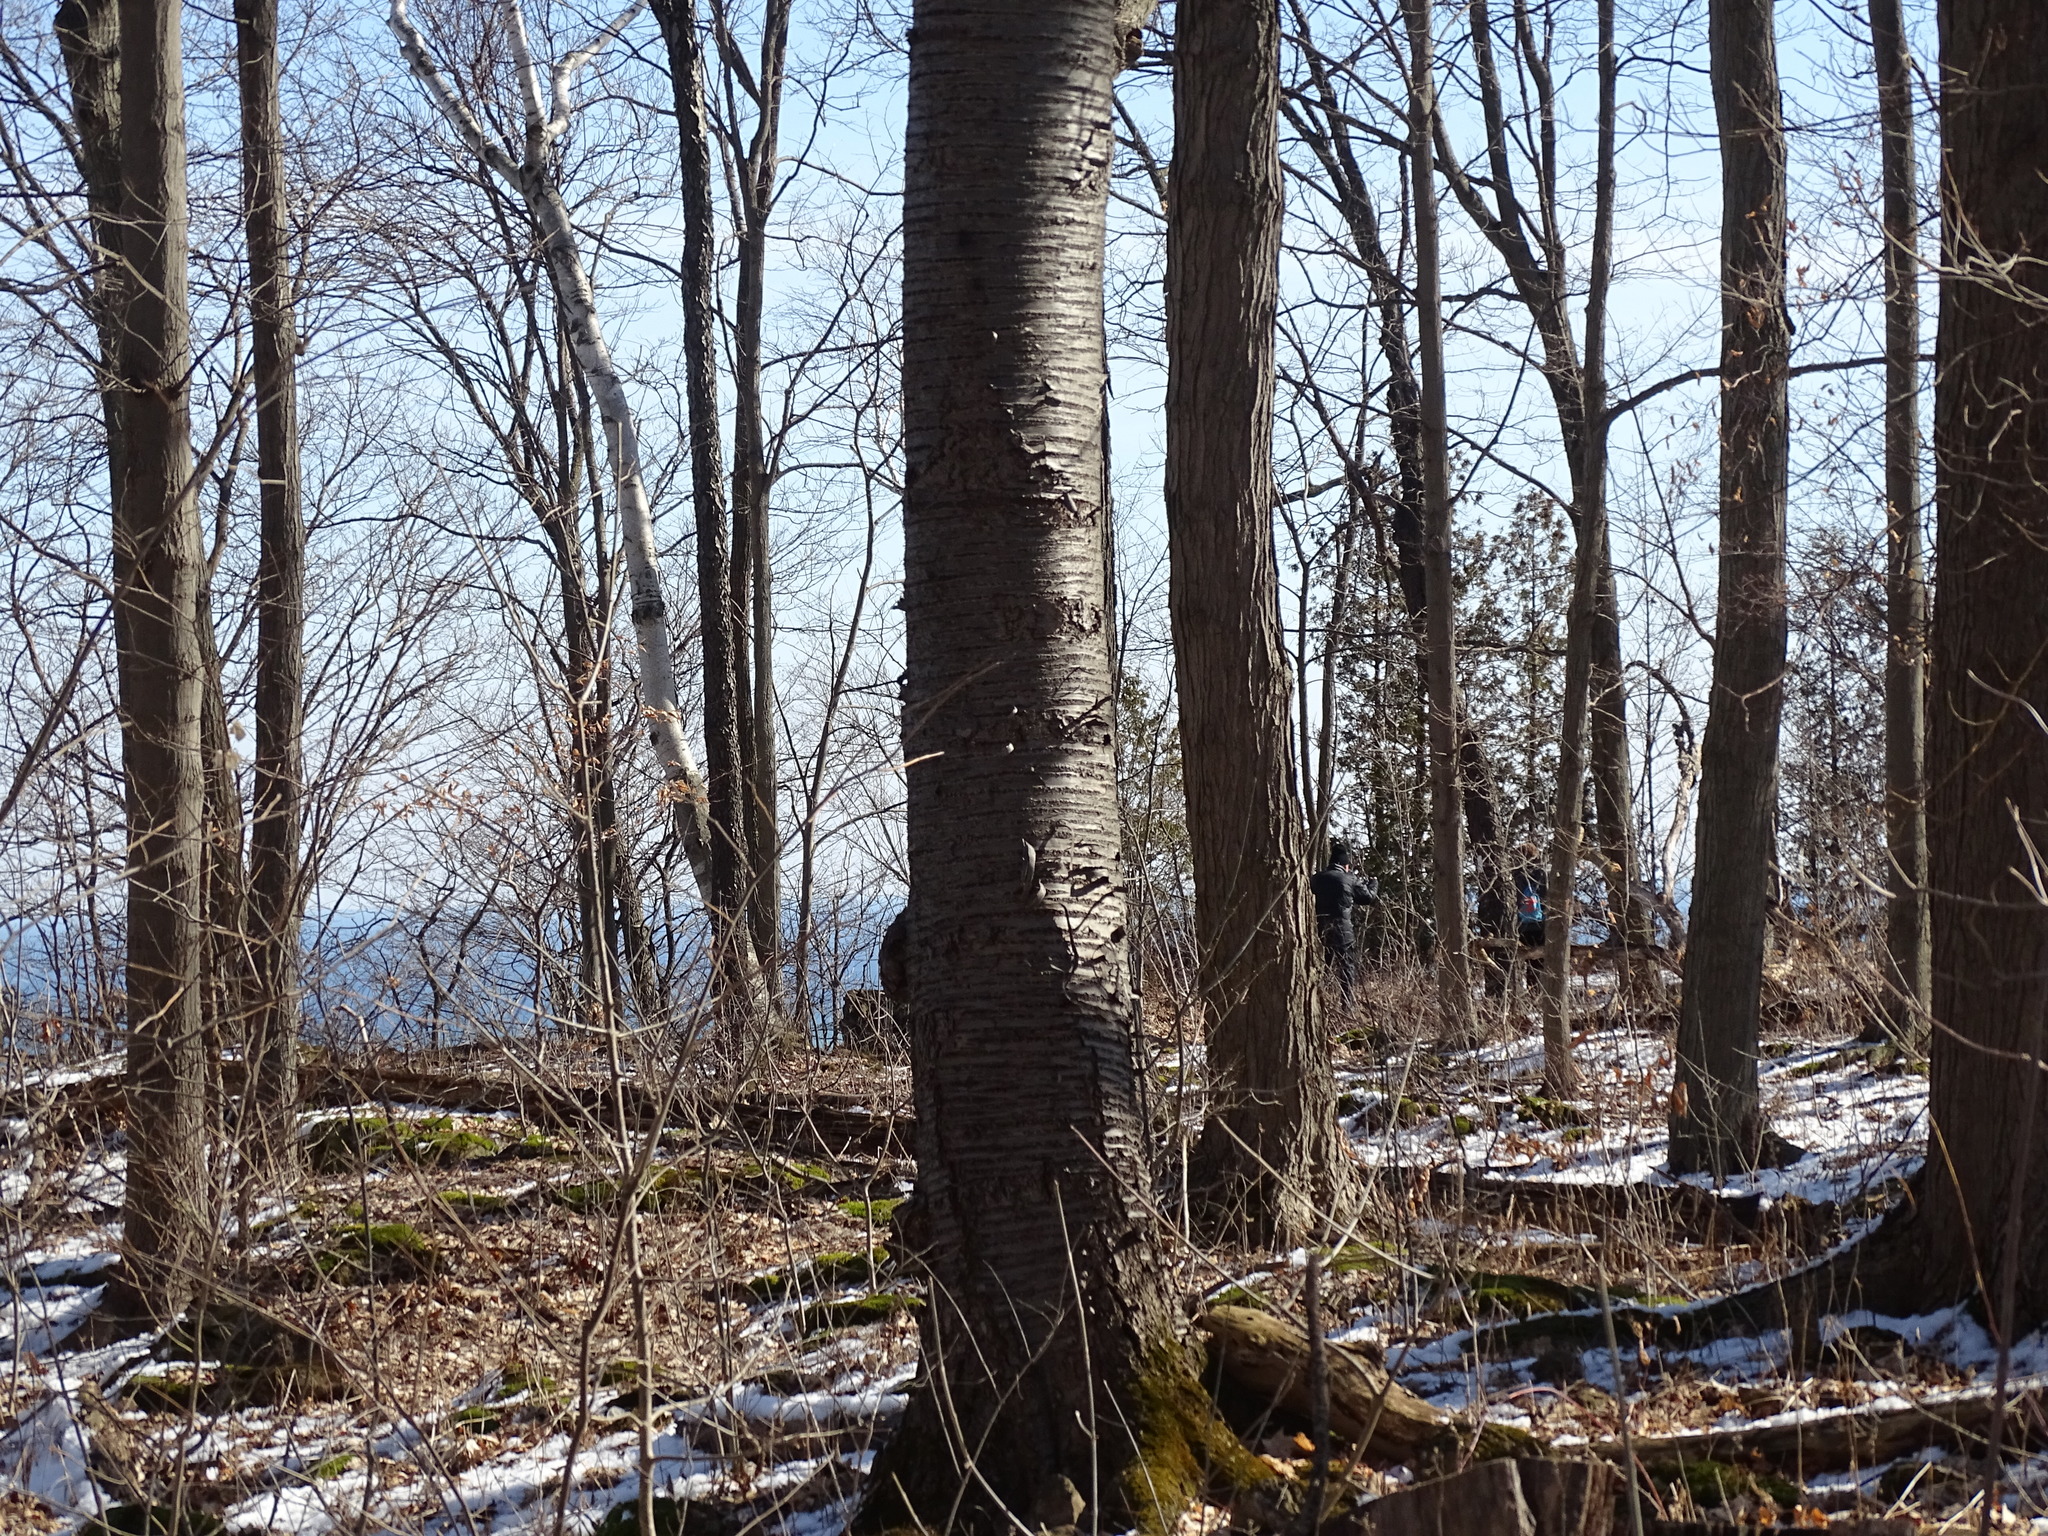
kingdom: Plantae
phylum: Tracheophyta
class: Magnoliopsida
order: Rosales
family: Rosaceae
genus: Prunus
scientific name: Prunus avium
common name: Sweet cherry
